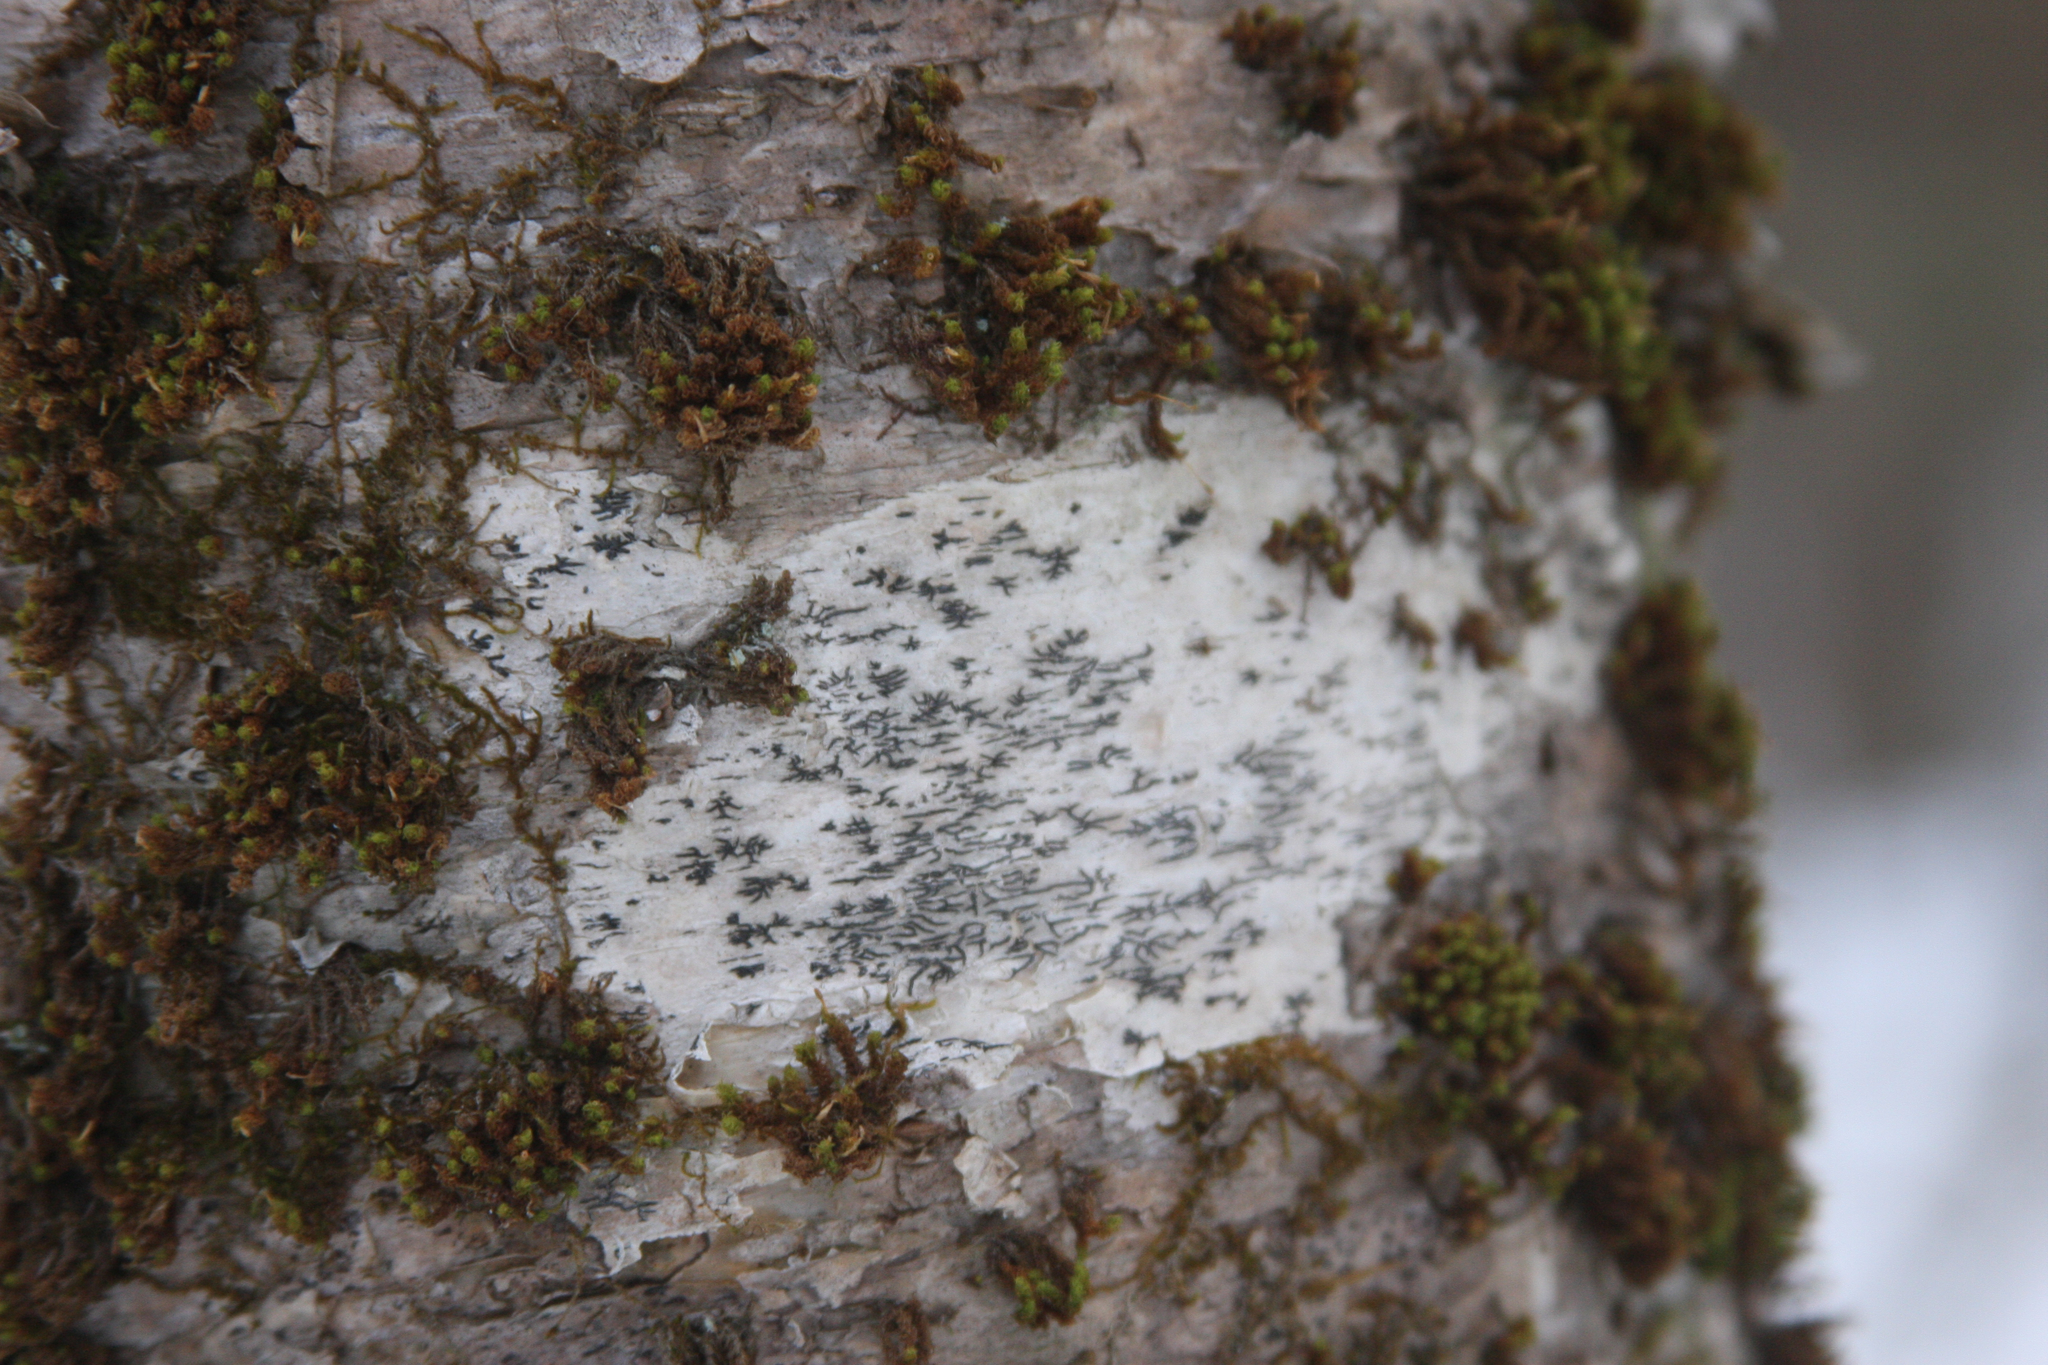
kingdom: Fungi
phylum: Ascomycota
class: Lecanoromycetes
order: Ostropales
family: Graphidaceae
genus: Graphis
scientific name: Graphis scripta
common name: Script lichen
